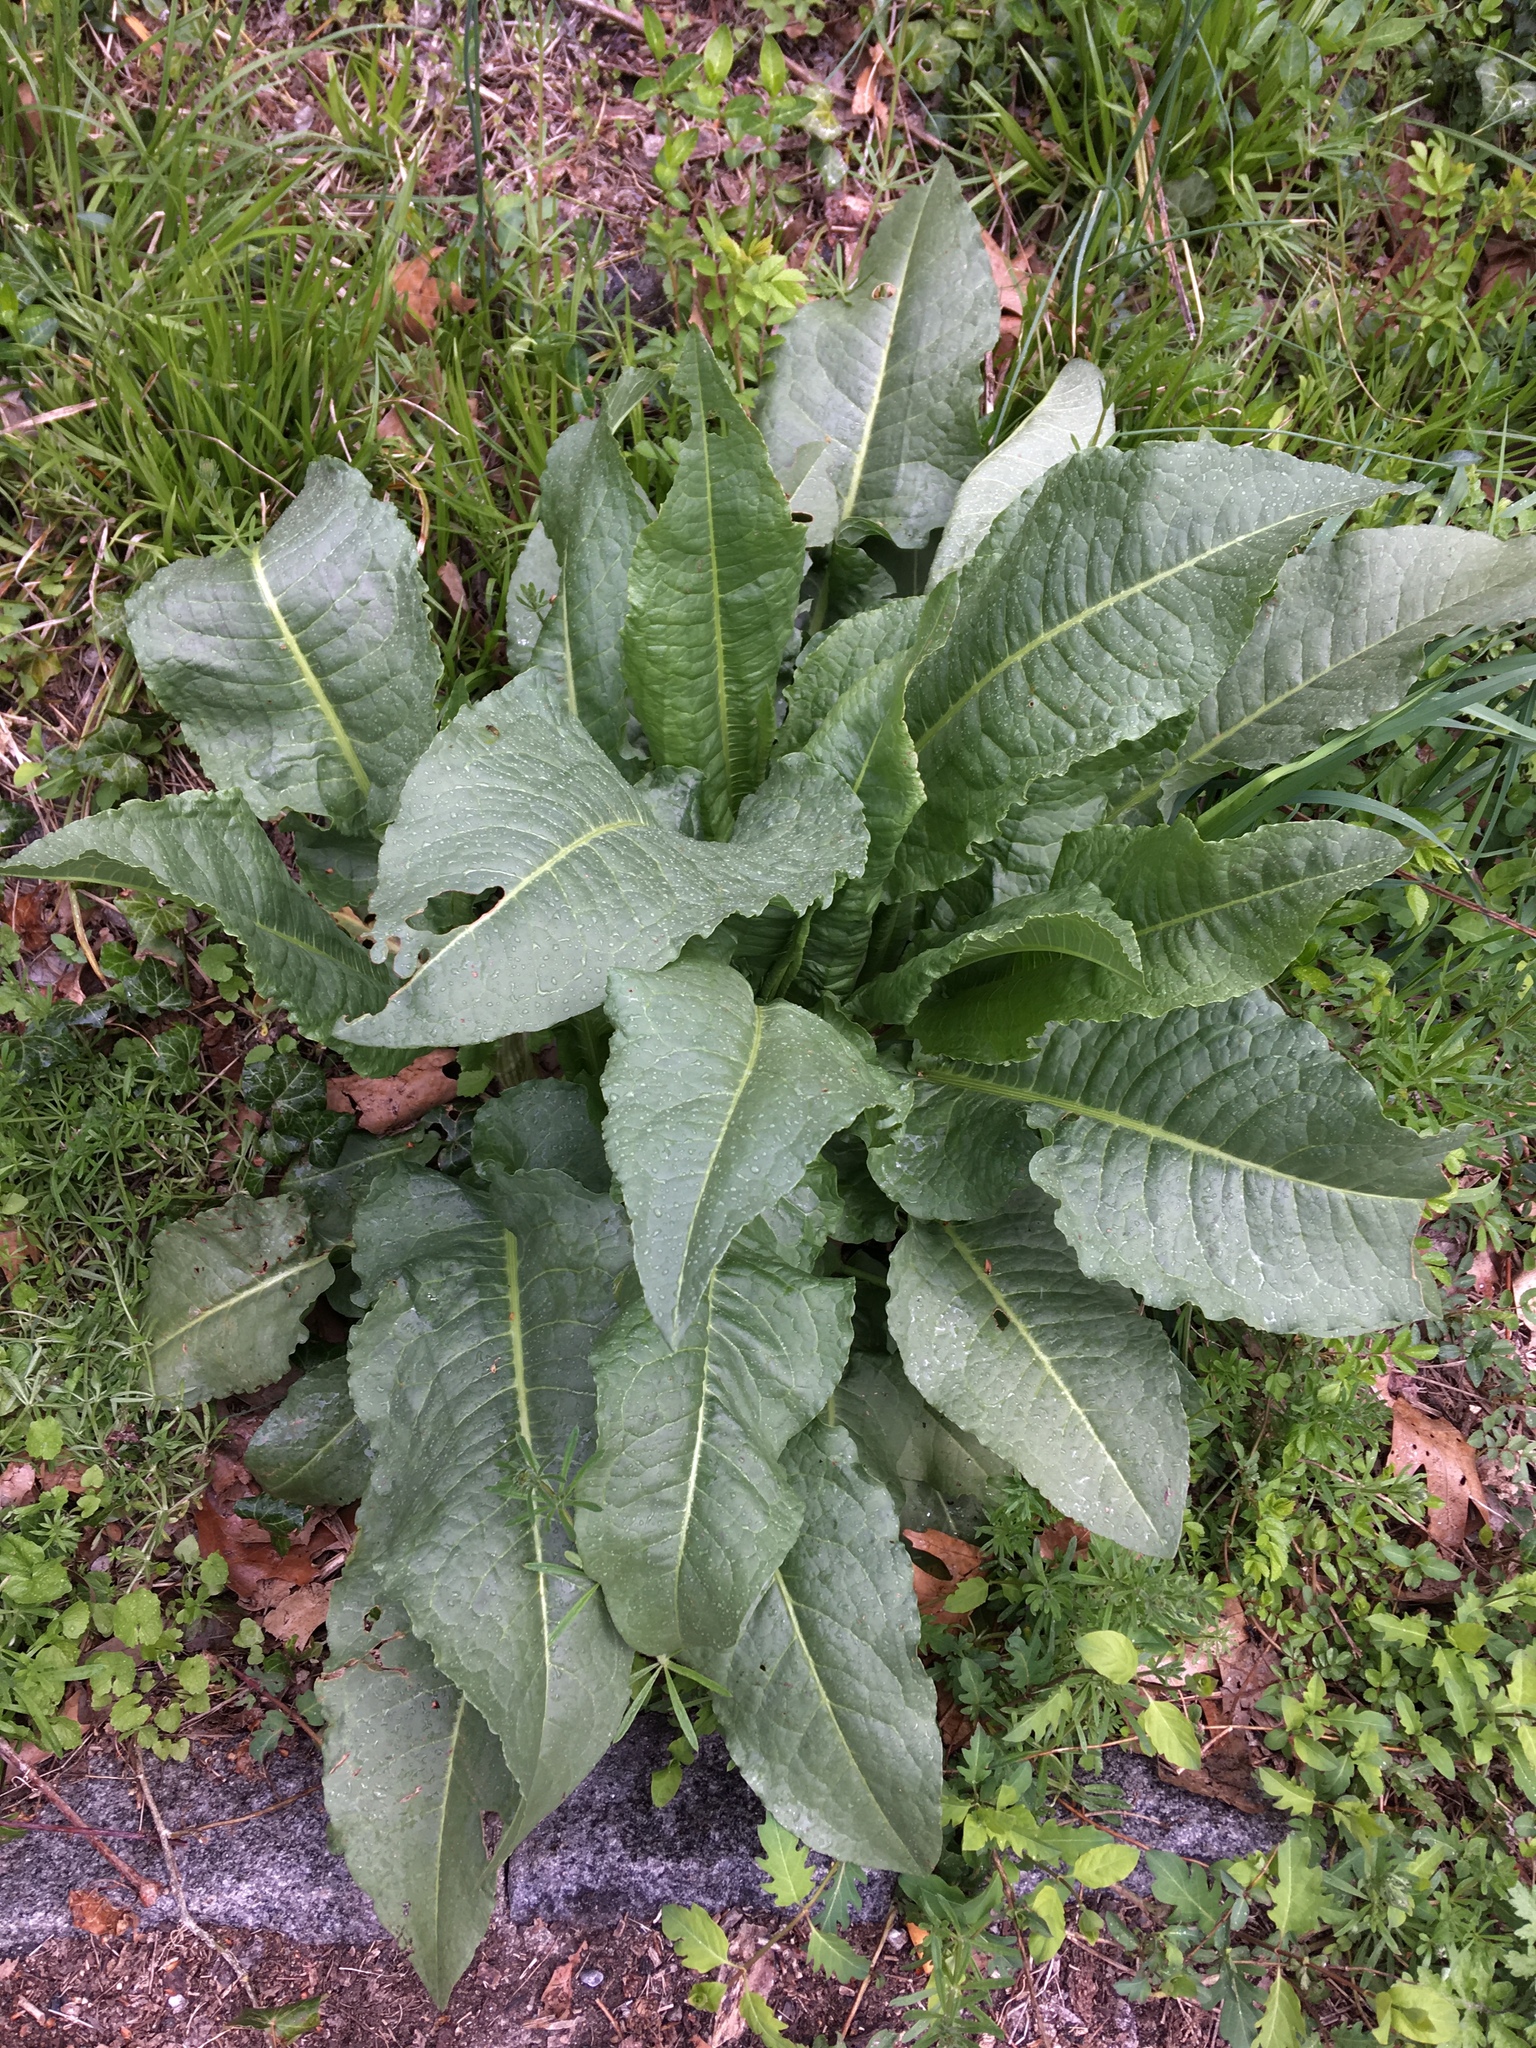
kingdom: Plantae
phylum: Tracheophyta
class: Magnoliopsida
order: Caryophyllales
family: Polygonaceae
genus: Rumex
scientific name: Rumex patientia
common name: Patience dock
